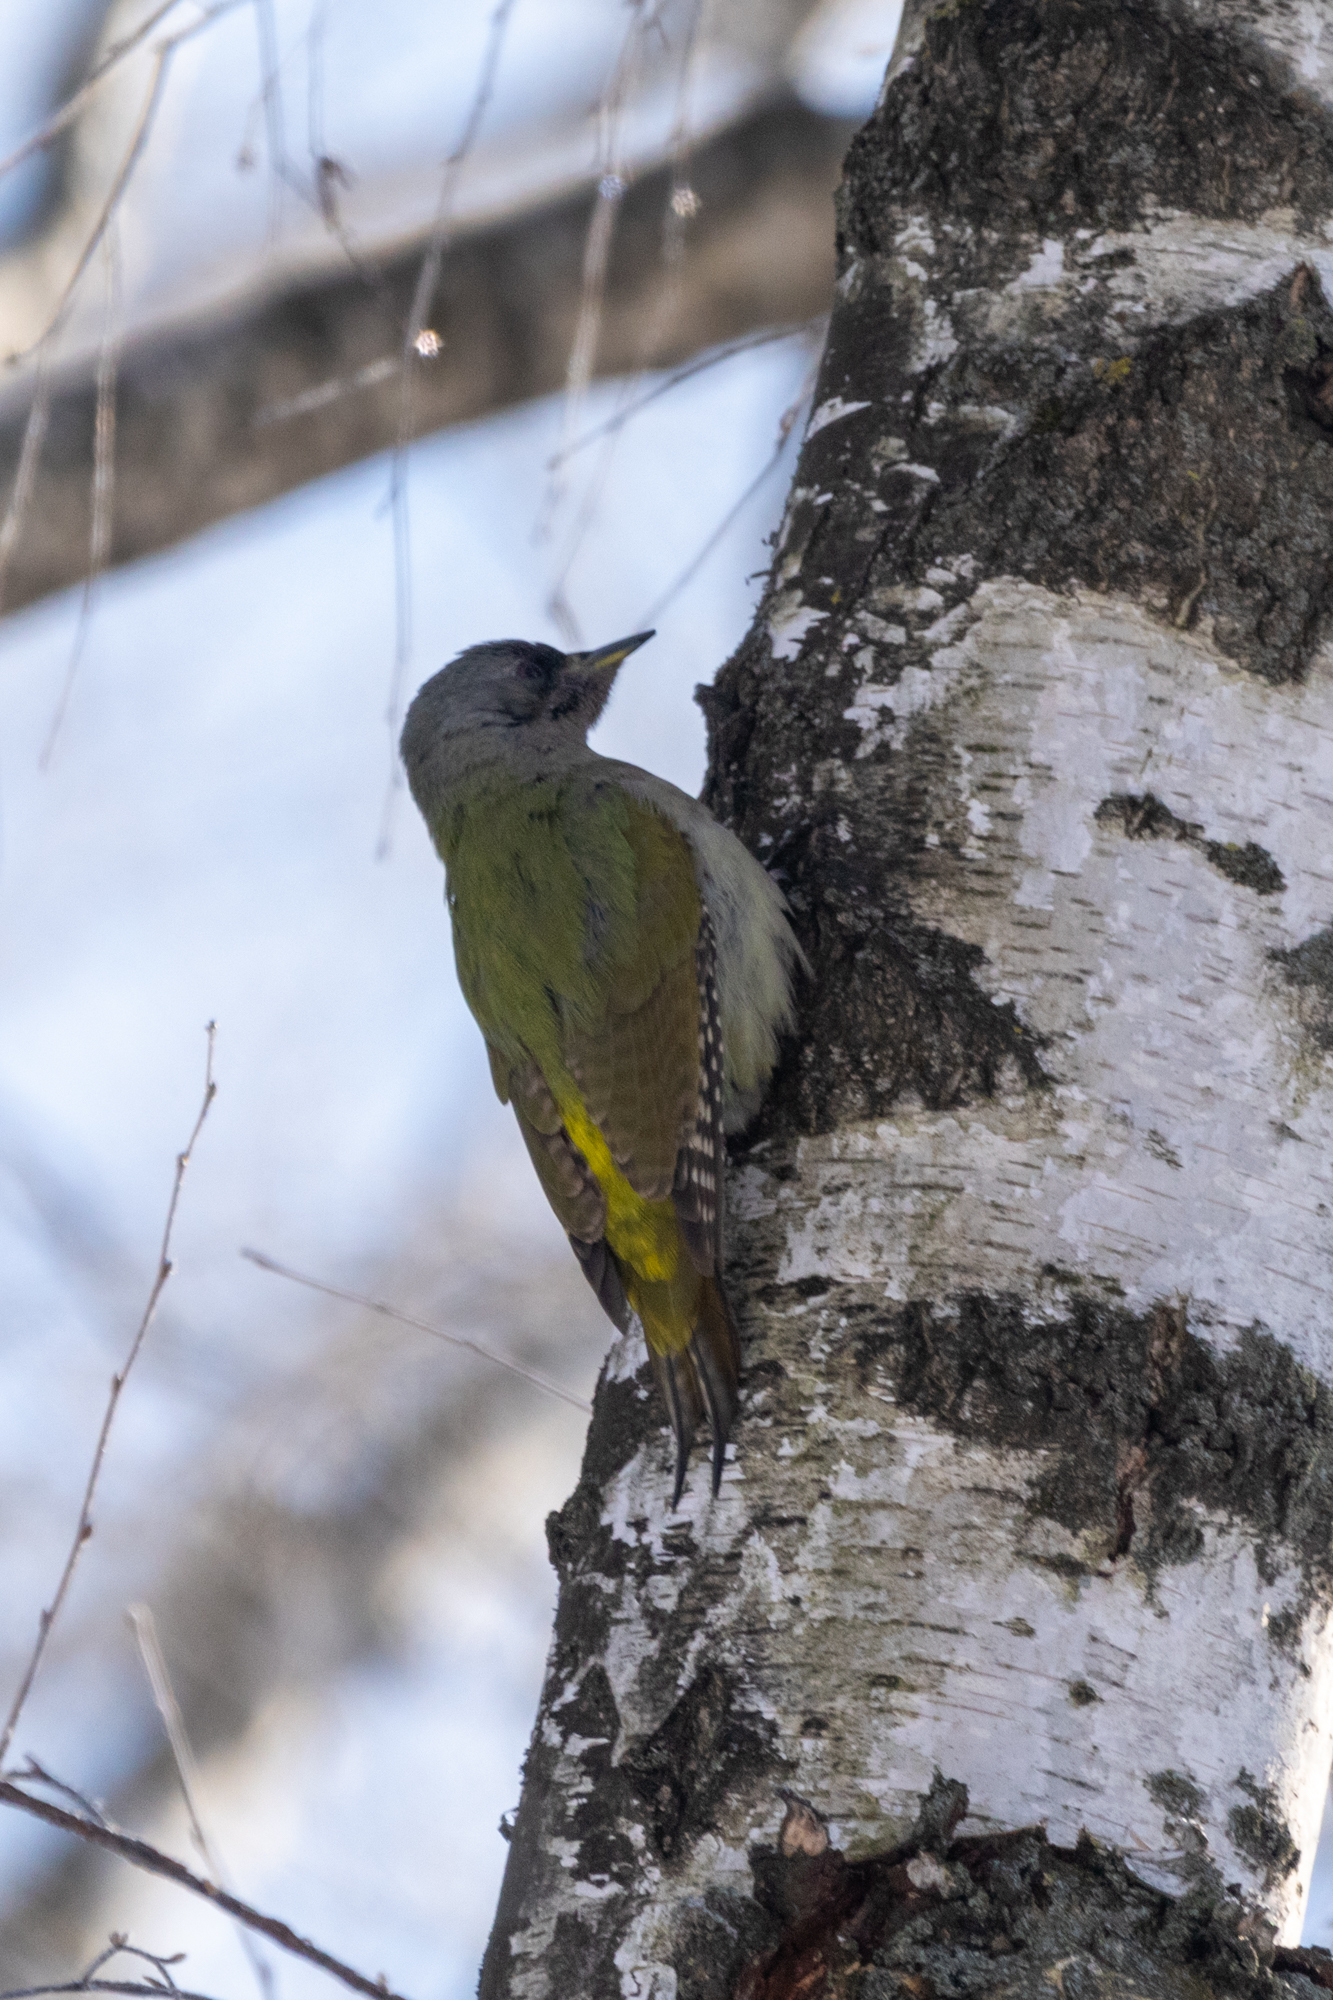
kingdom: Animalia
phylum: Chordata
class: Aves
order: Piciformes
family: Picidae
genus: Picus
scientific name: Picus canus
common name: Grey-headed woodpecker
